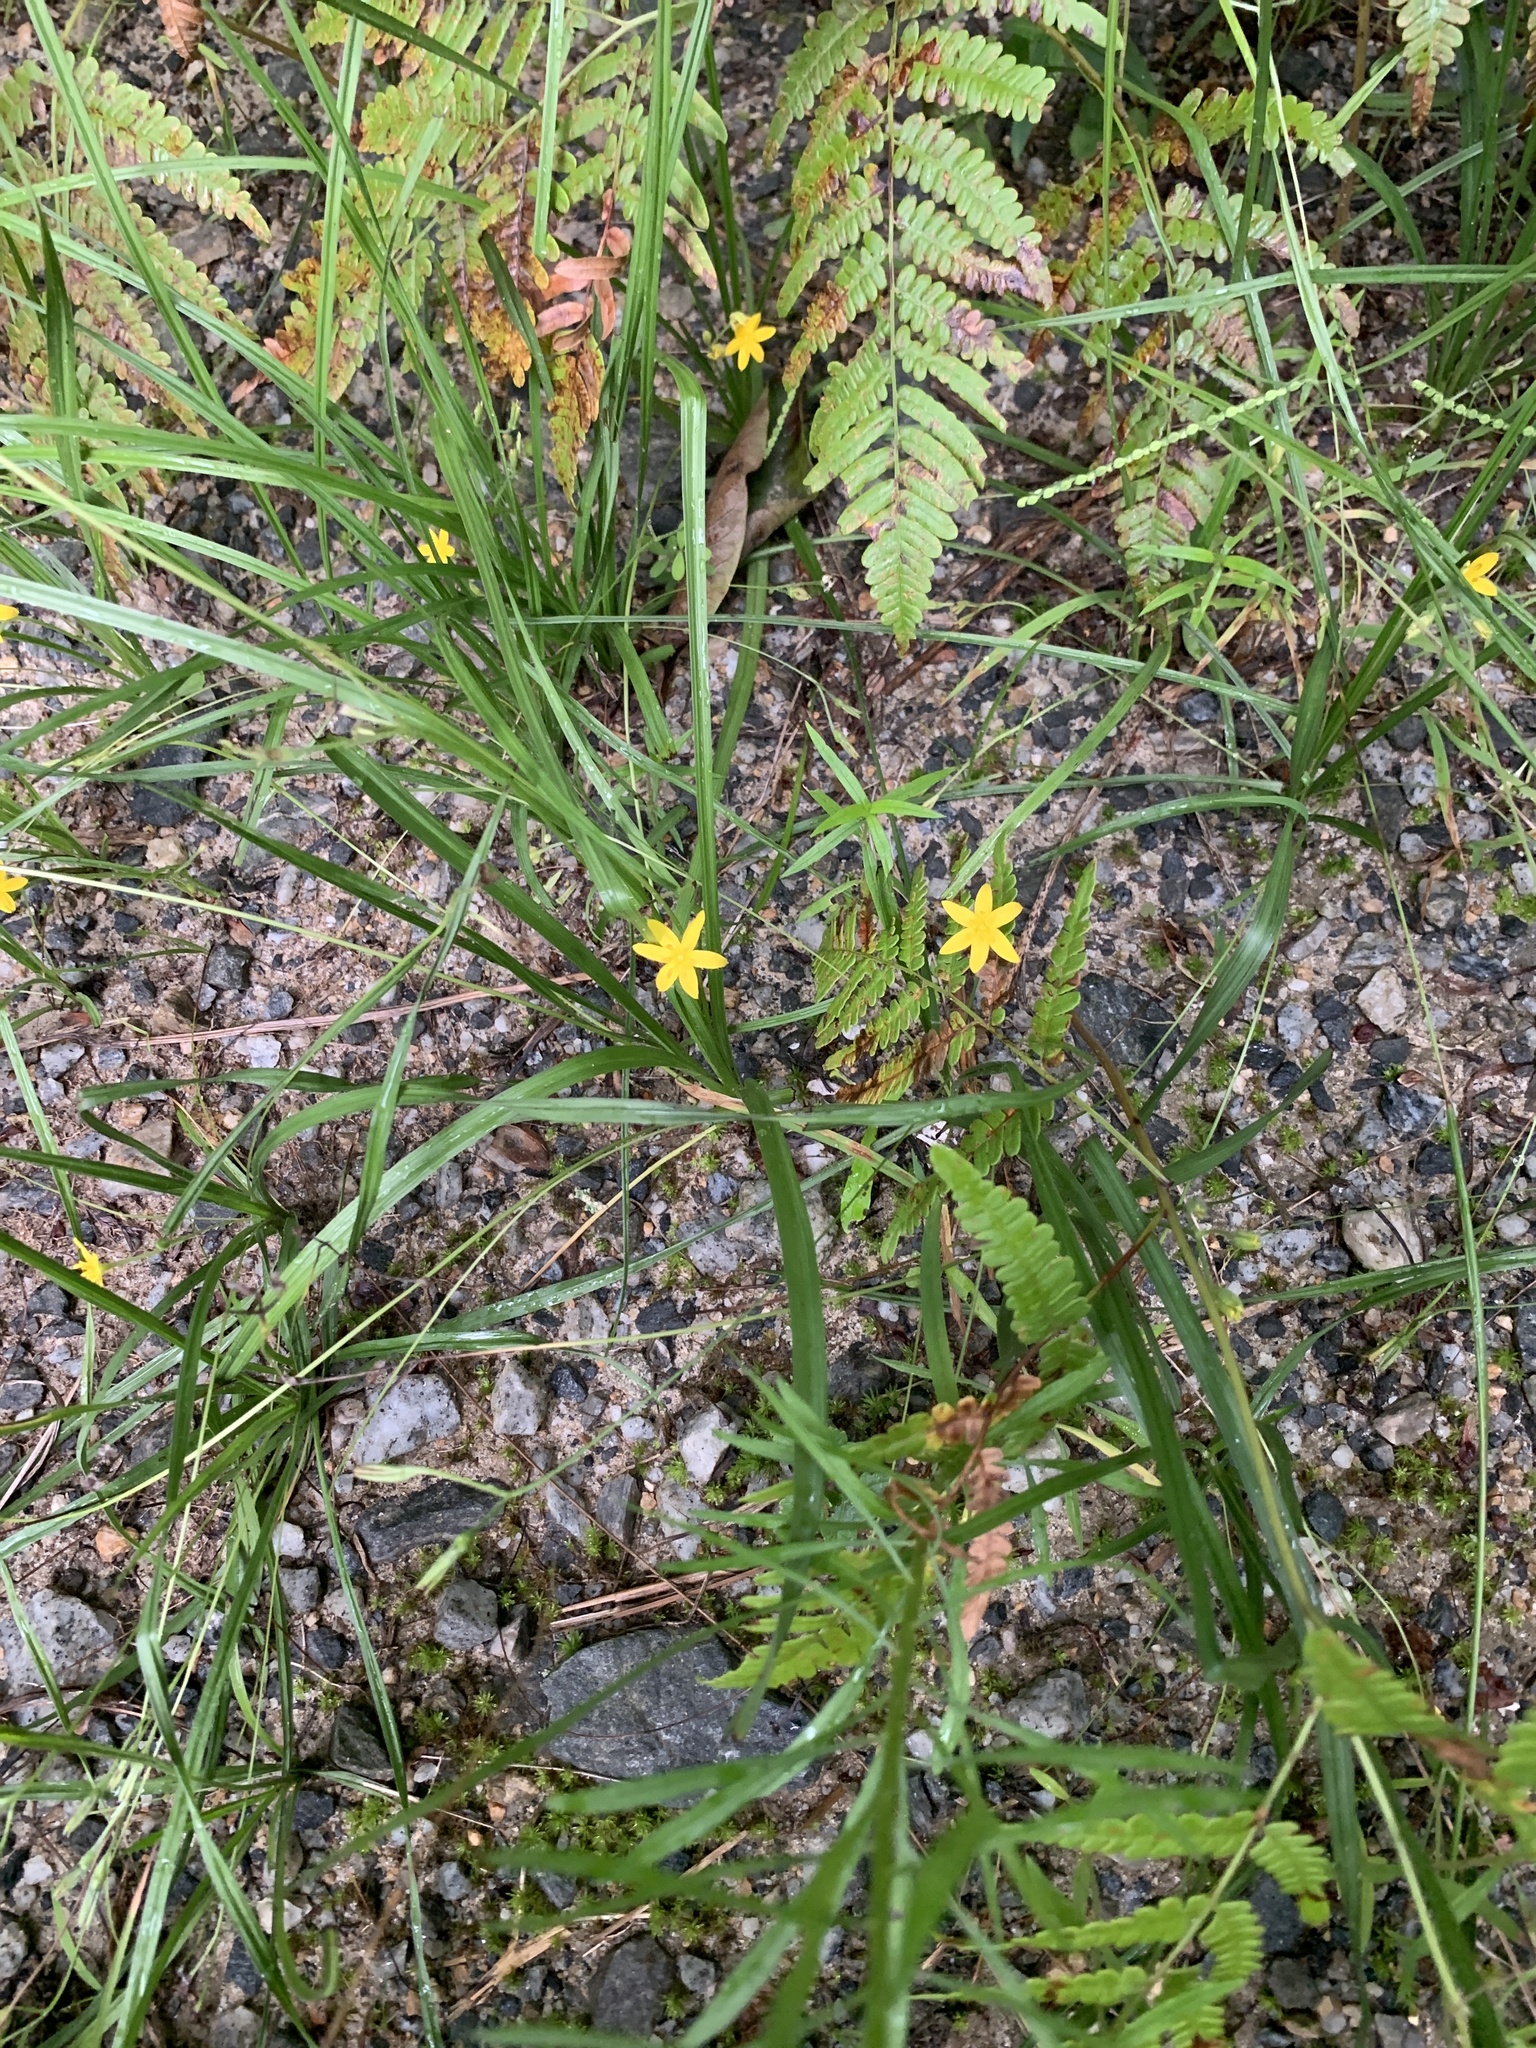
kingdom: Plantae
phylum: Tracheophyta
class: Liliopsida
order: Asparagales
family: Hypoxidaceae
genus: Hypoxis
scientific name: Hypoxis hirsuta
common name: Common goldstar
